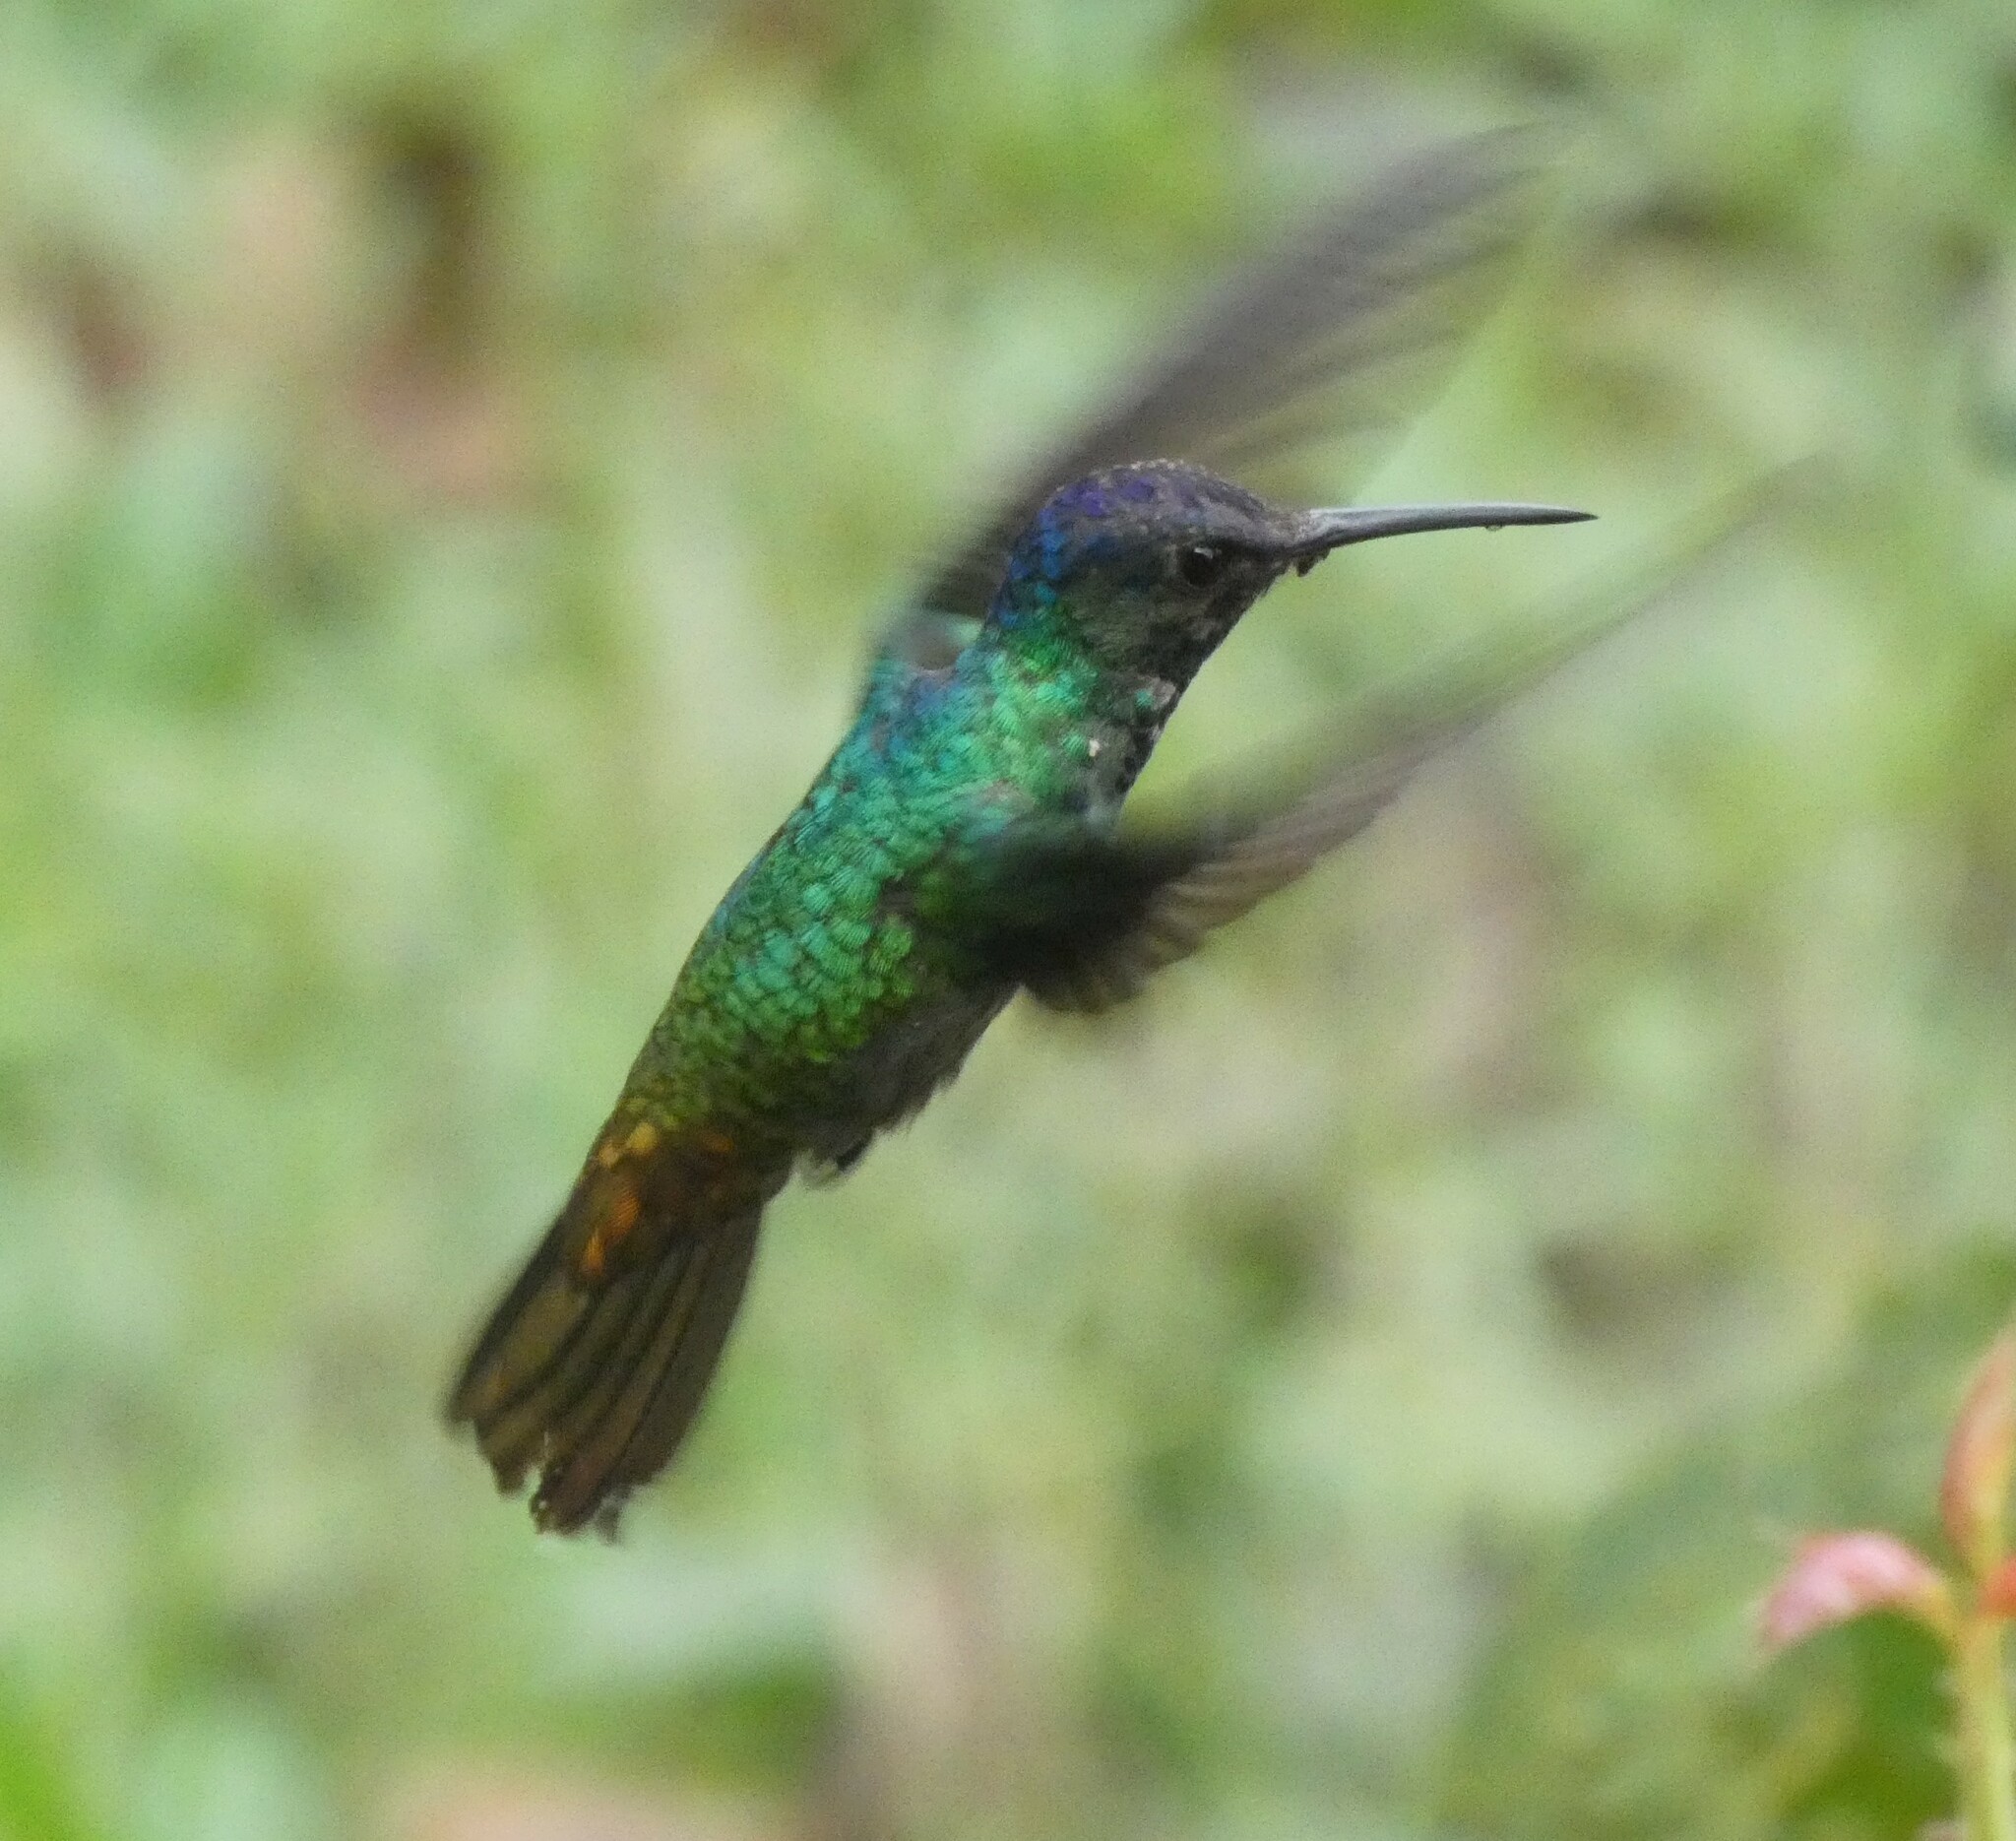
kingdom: Animalia
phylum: Chordata
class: Aves
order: Apodiformes
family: Trochilidae
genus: Chrysuronia
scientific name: Chrysuronia oenone
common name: Golden-tailed sapphire
